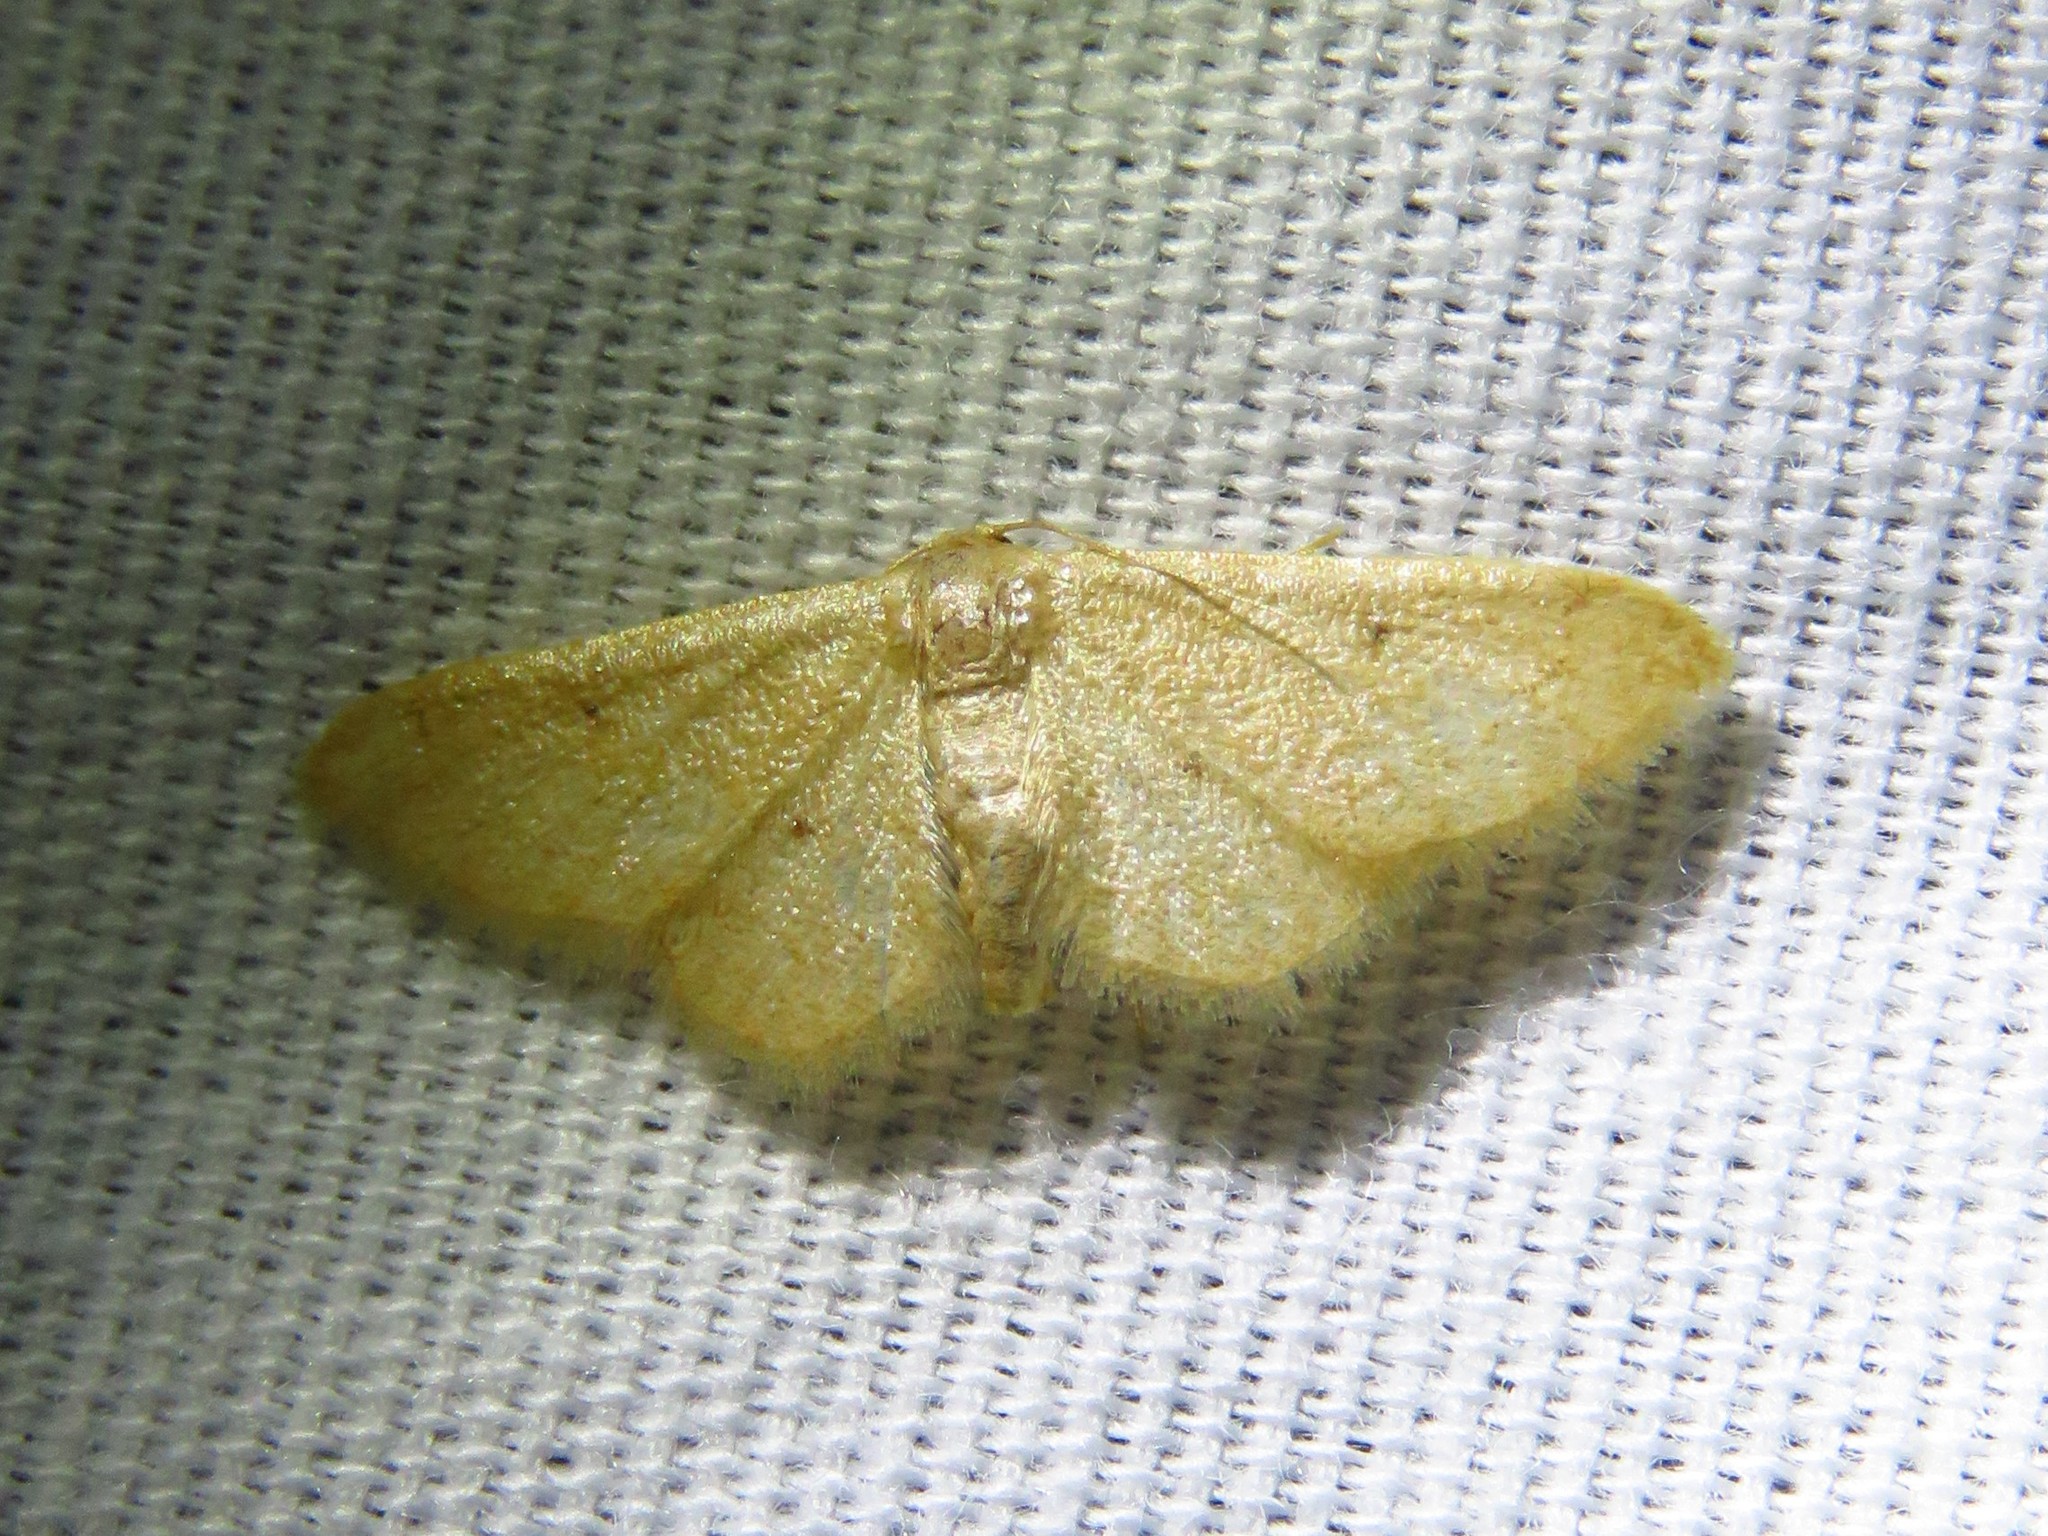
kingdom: Animalia
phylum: Arthropoda
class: Insecta
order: Lepidoptera
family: Geometridae
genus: Idaea
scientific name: Idaea demissaria
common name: Red-bordered wave
